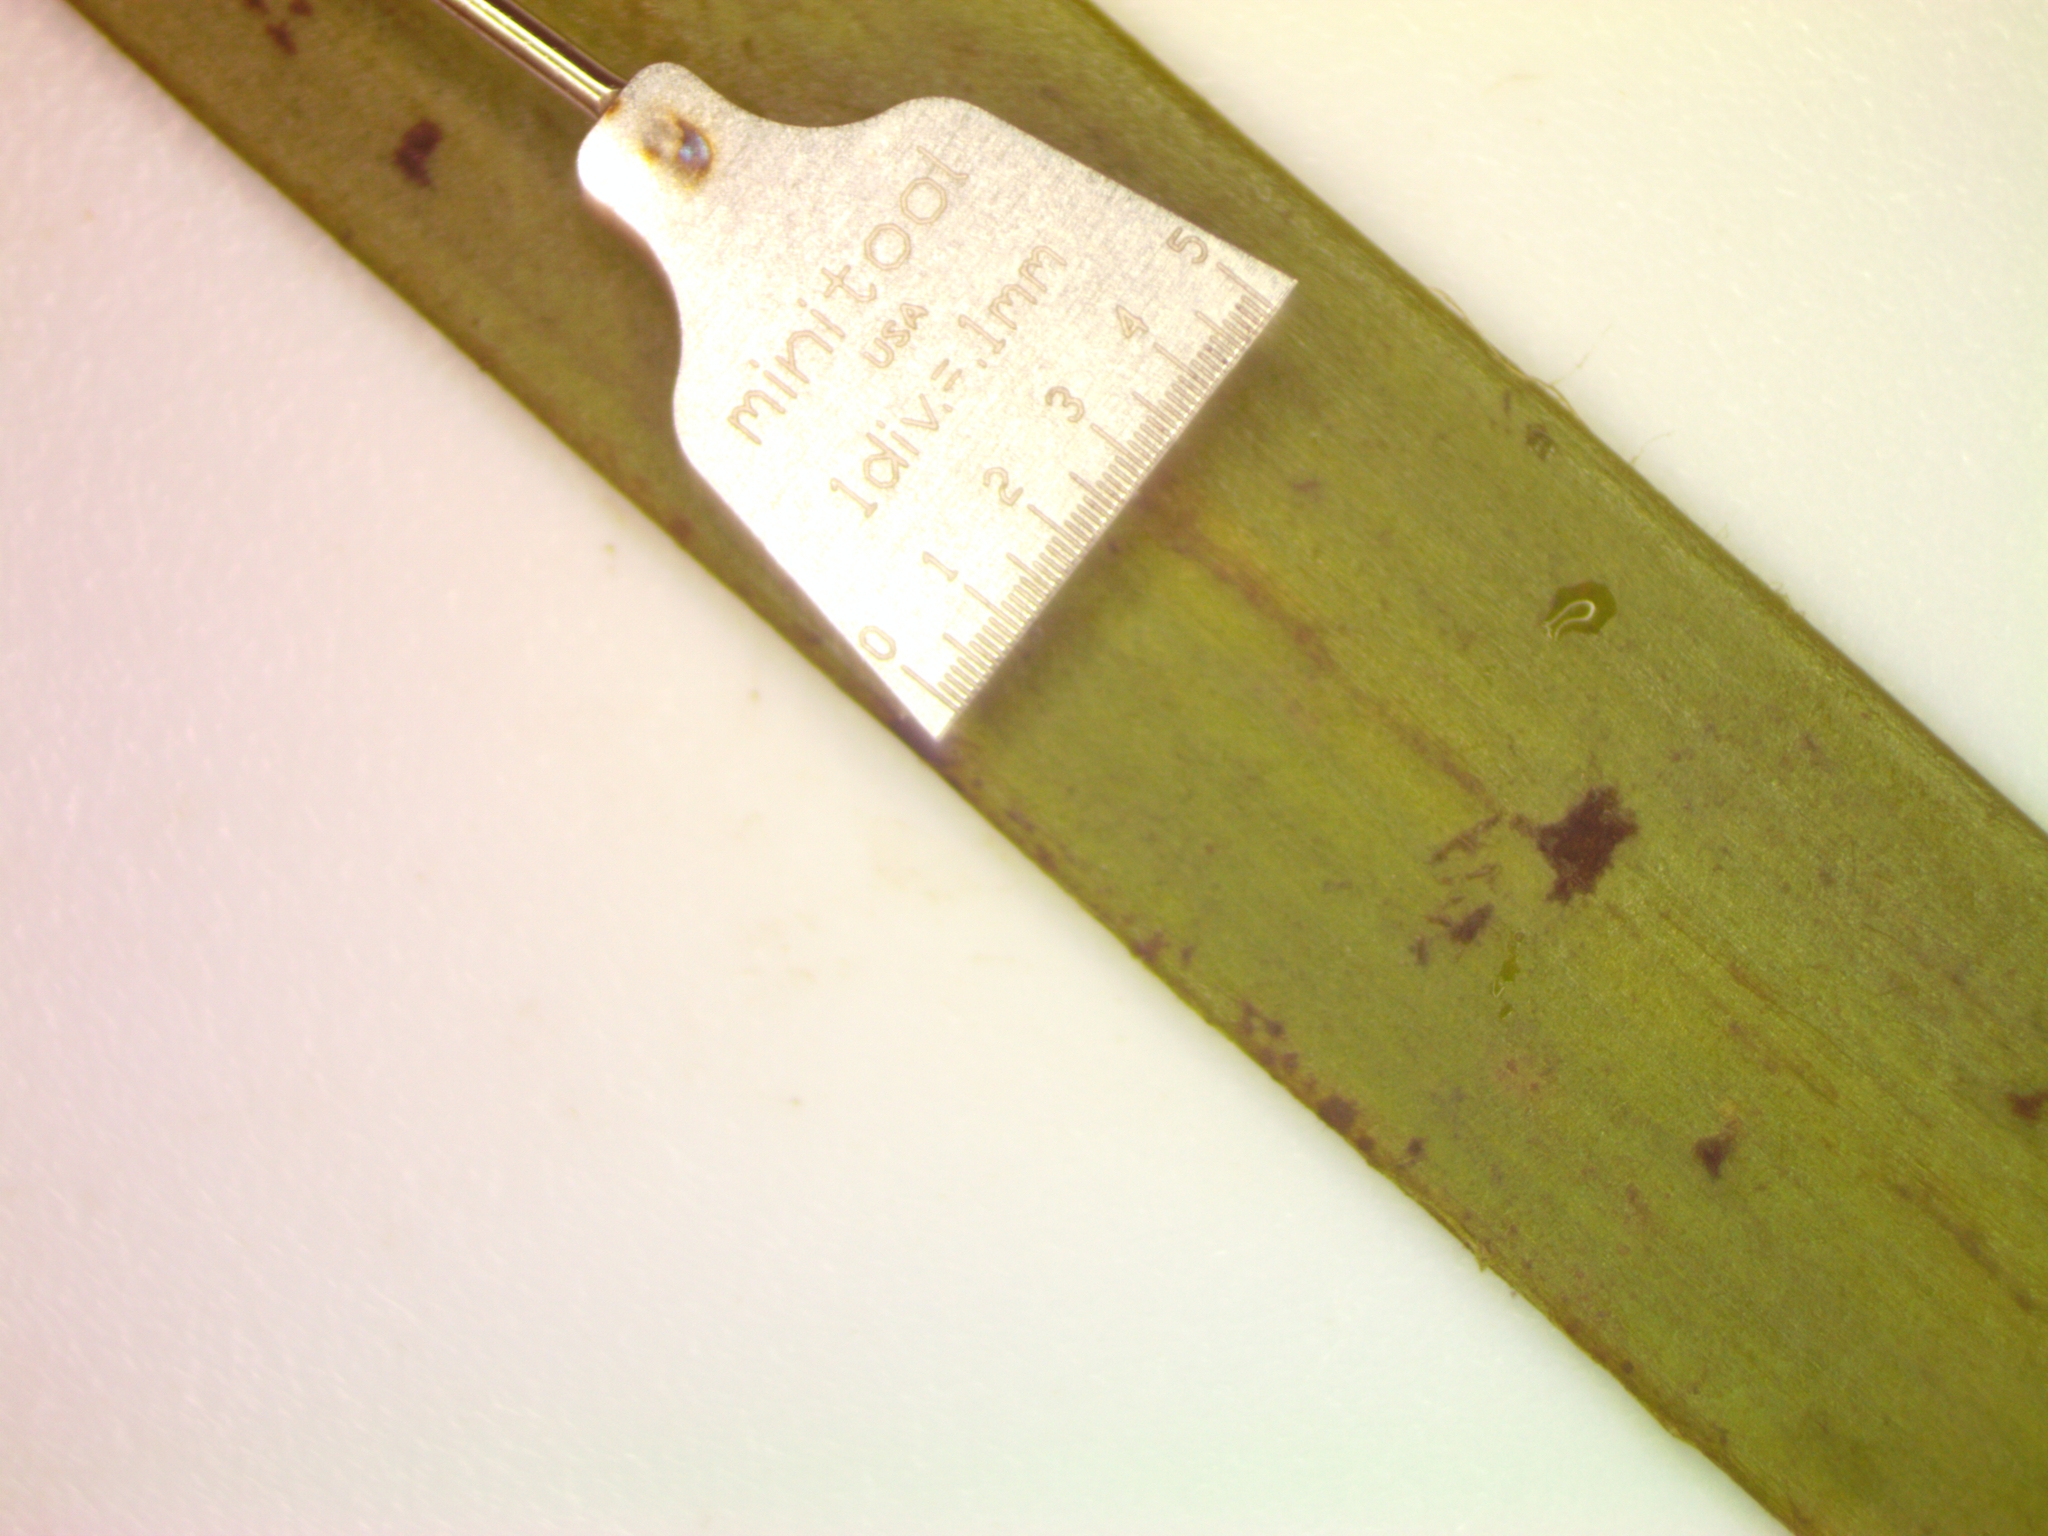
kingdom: Plantae
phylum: Tracheophyta
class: Liliopsida
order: Poales
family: Typhaceae
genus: Sparganium
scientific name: Sparganium fluctuans
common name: Floating burreed
